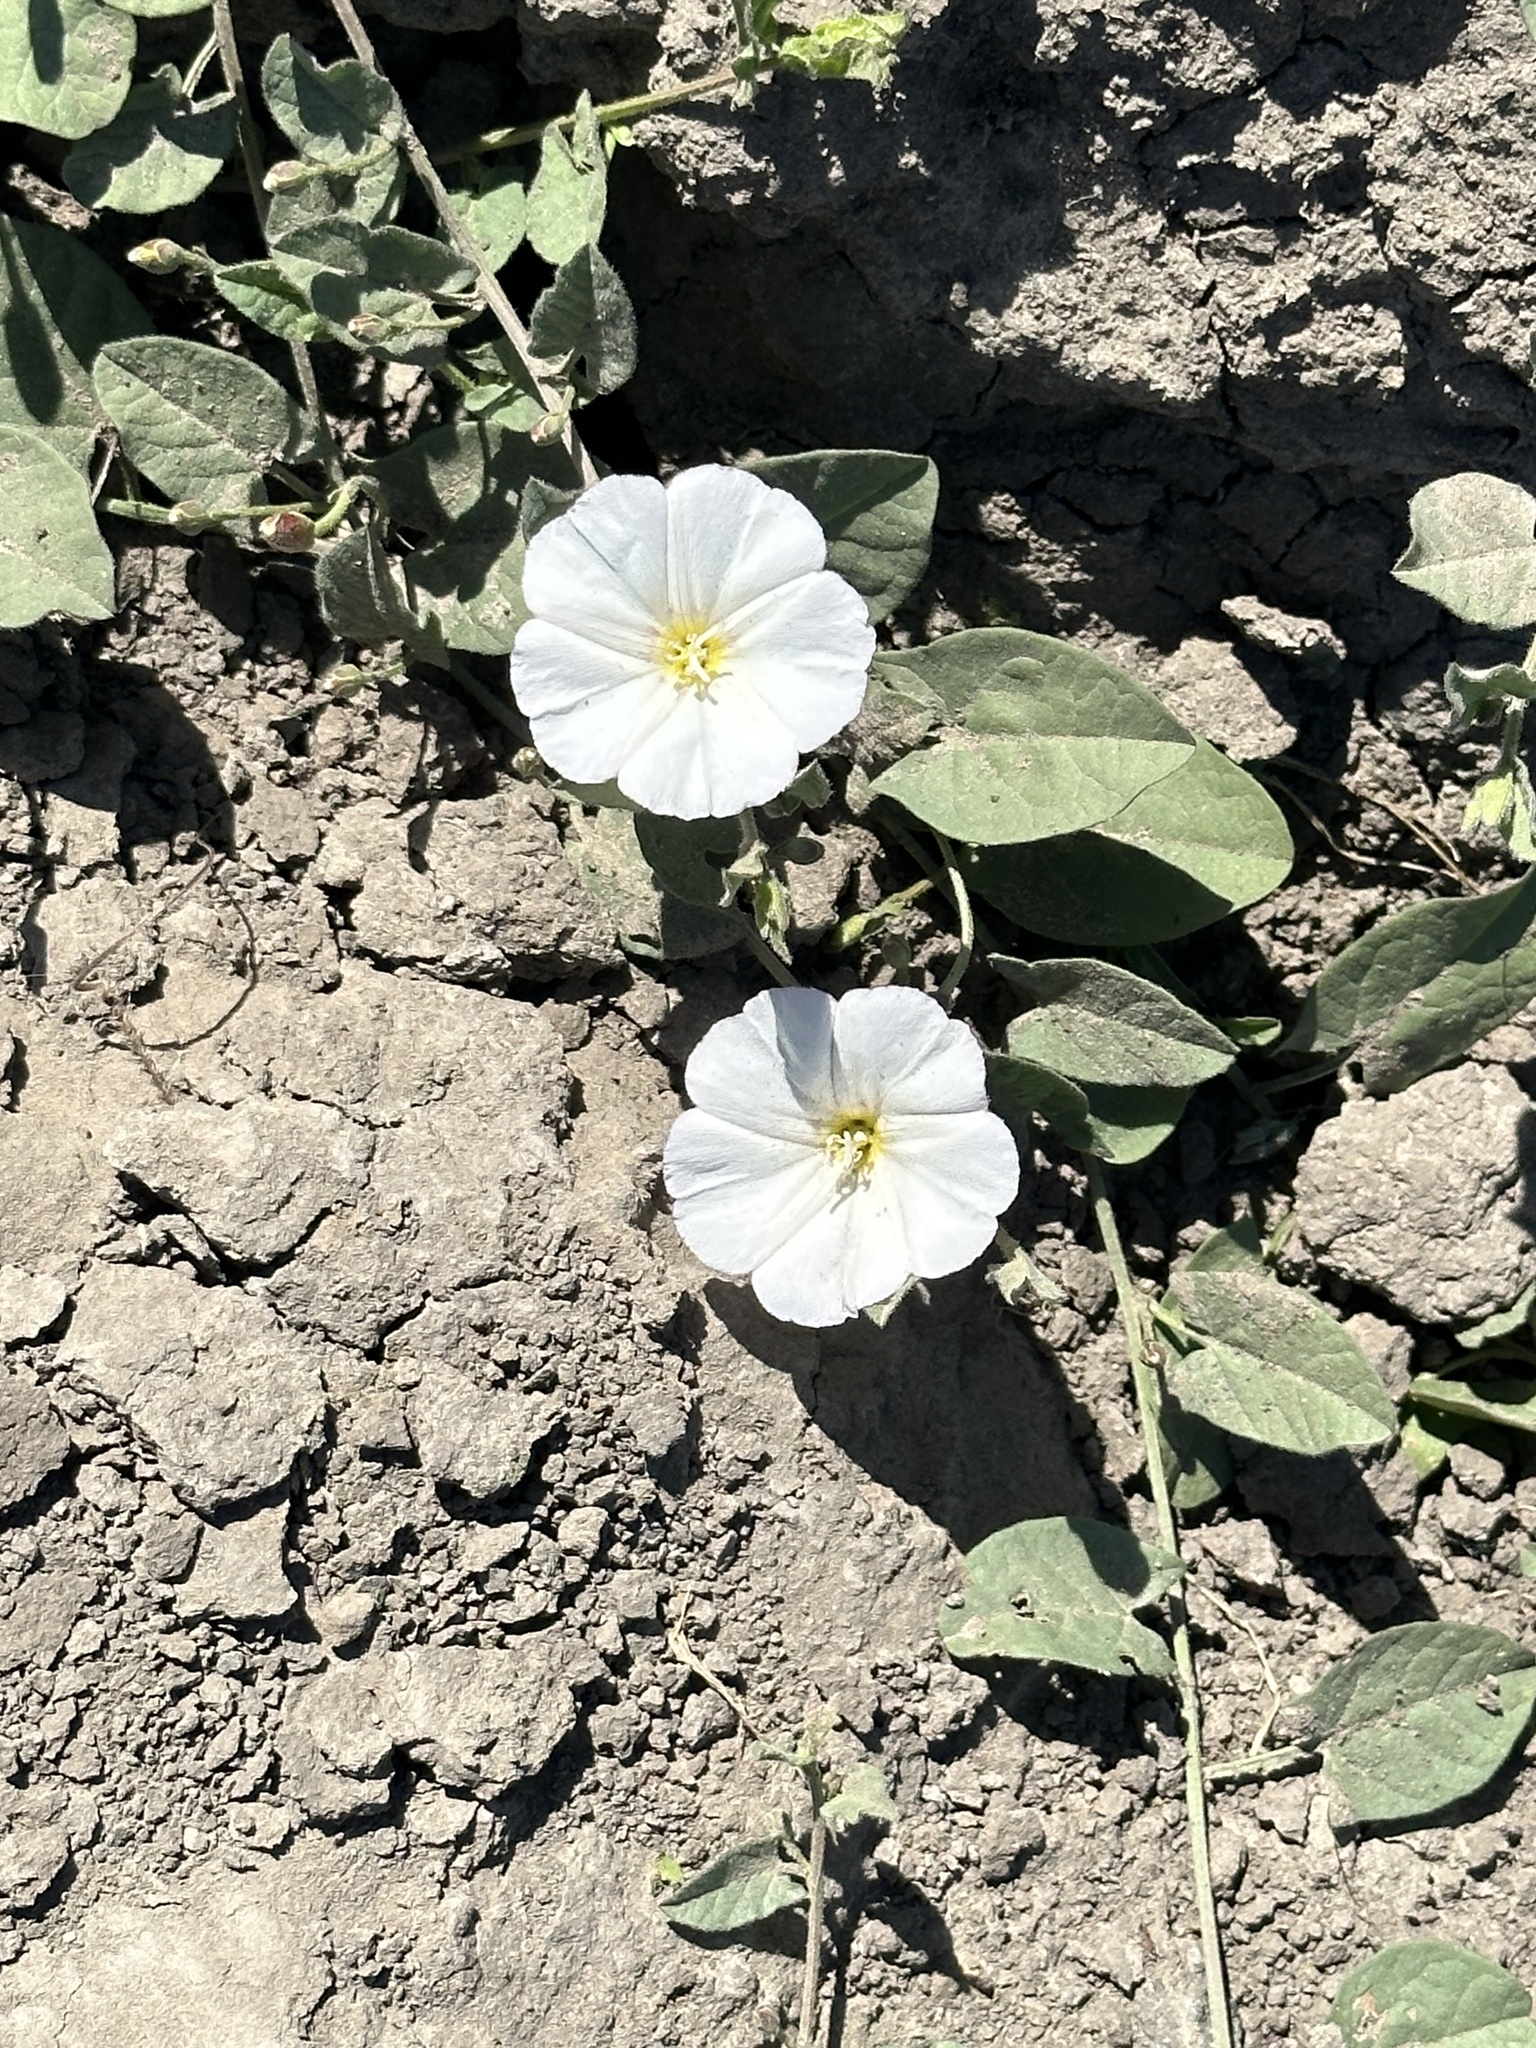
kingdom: Plantae
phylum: Tracheophyta
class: Magnoliopsida
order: Solanales
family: Convolvulaceae
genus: Convolvulus
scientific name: Convolvulus arvensis
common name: Field bindweed
